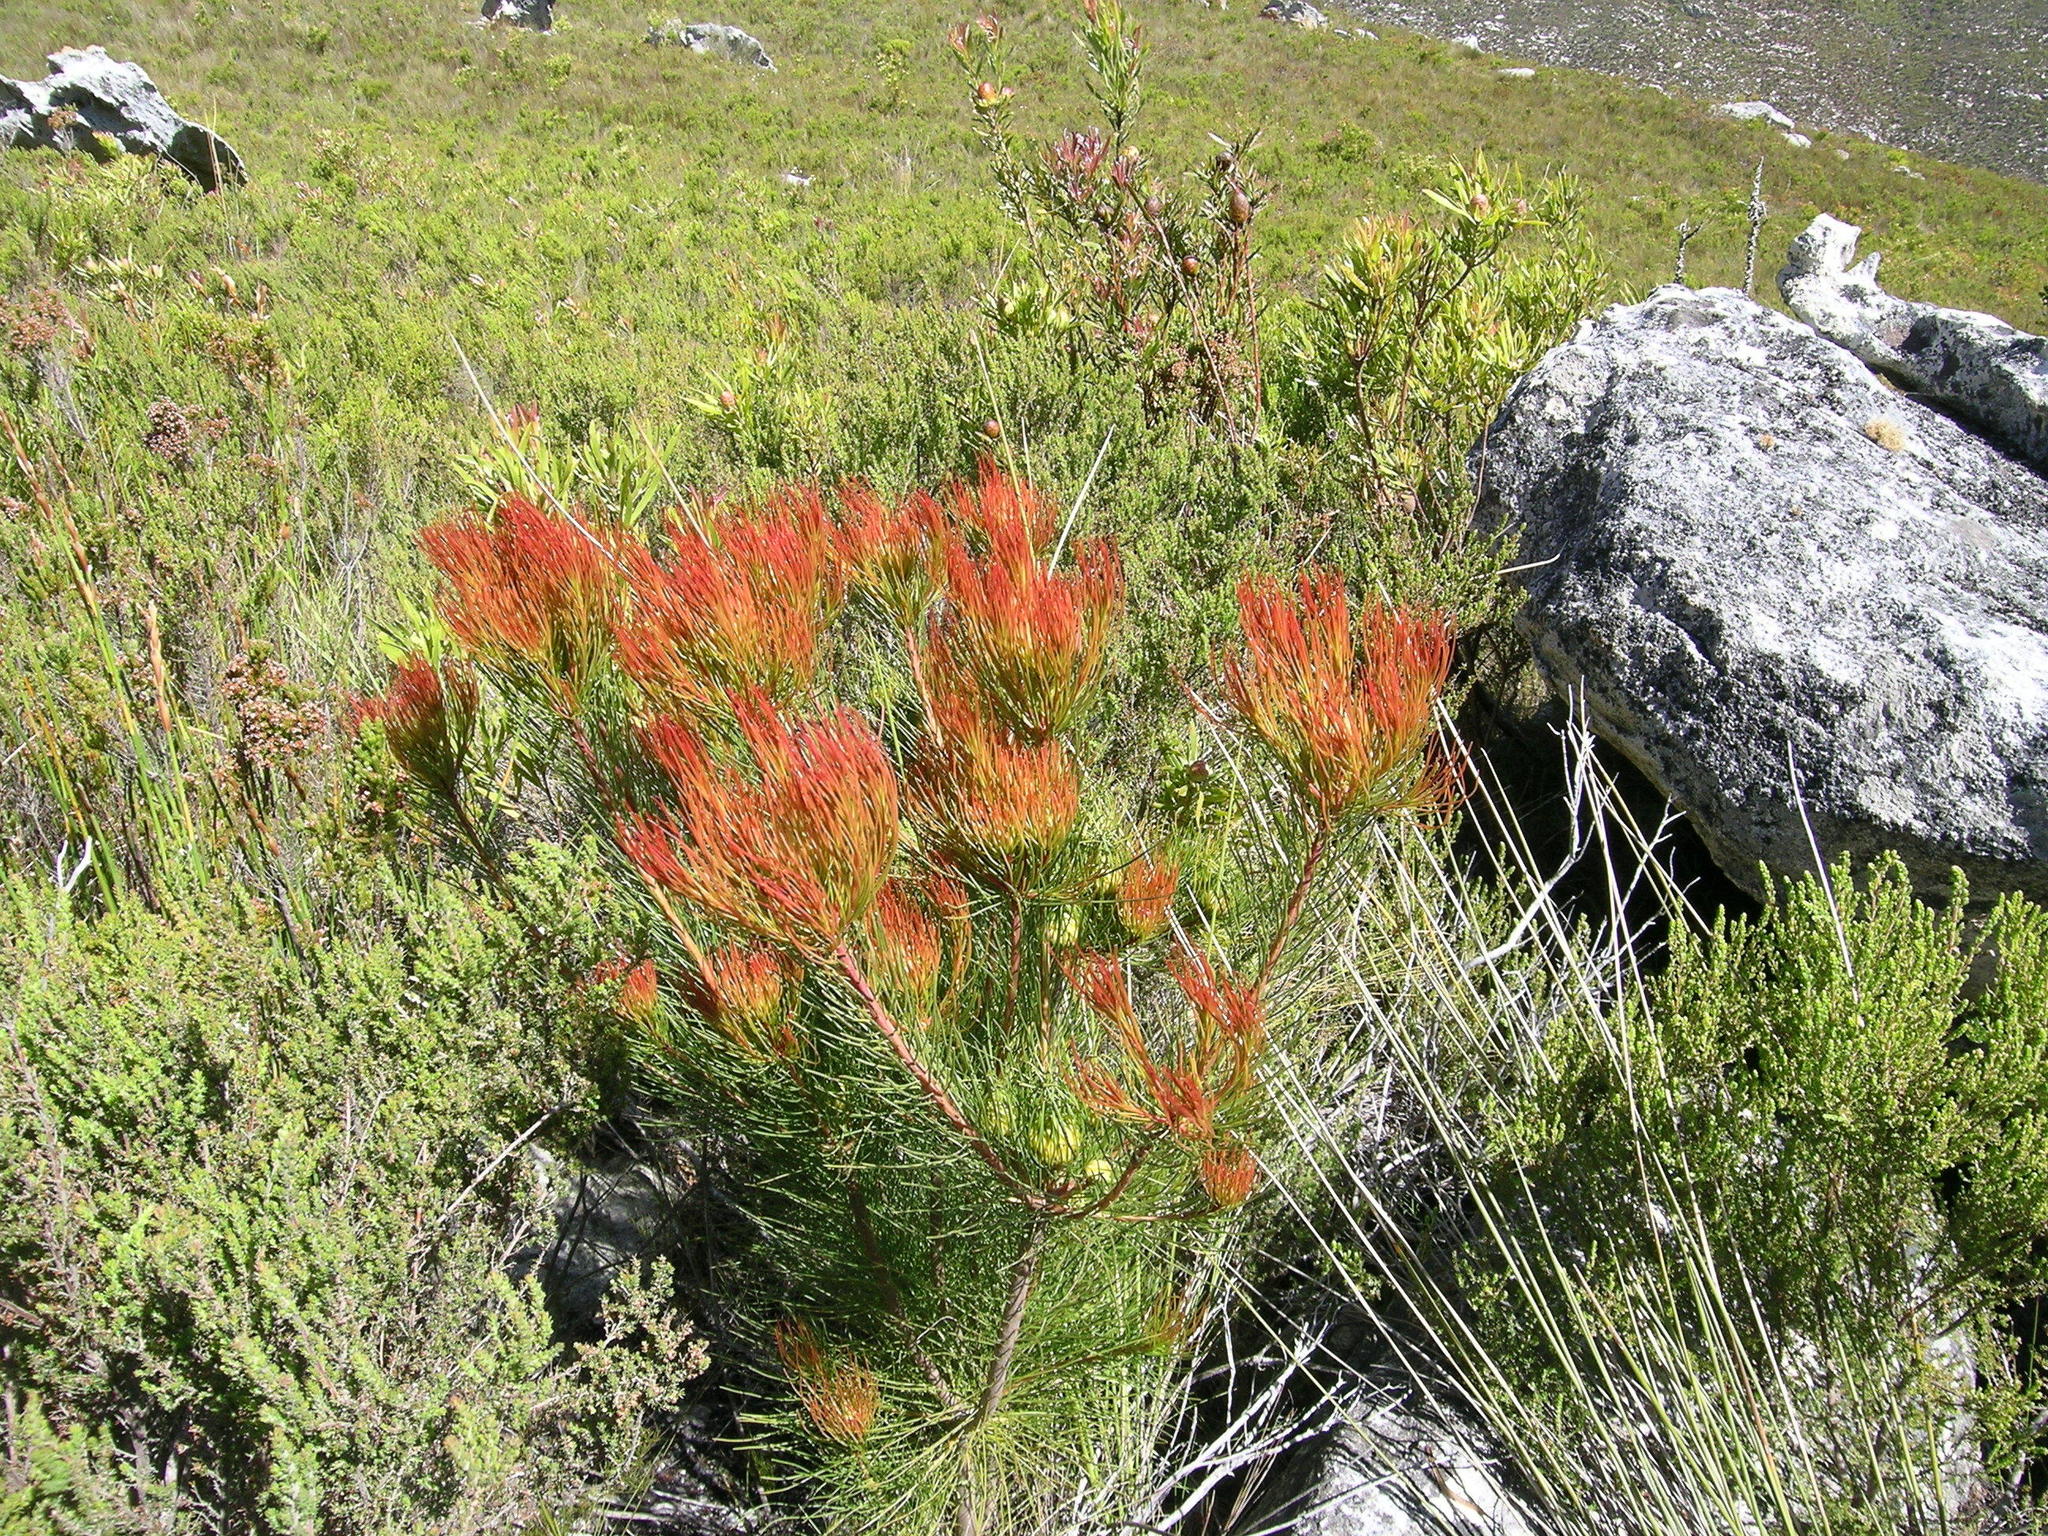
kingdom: Plantae
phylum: Tracheophyta
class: Magnoliopsida
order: Proteales
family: Proteaceae
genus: Aulax
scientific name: Aulax cancellata
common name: Channel-leaf featherbush
